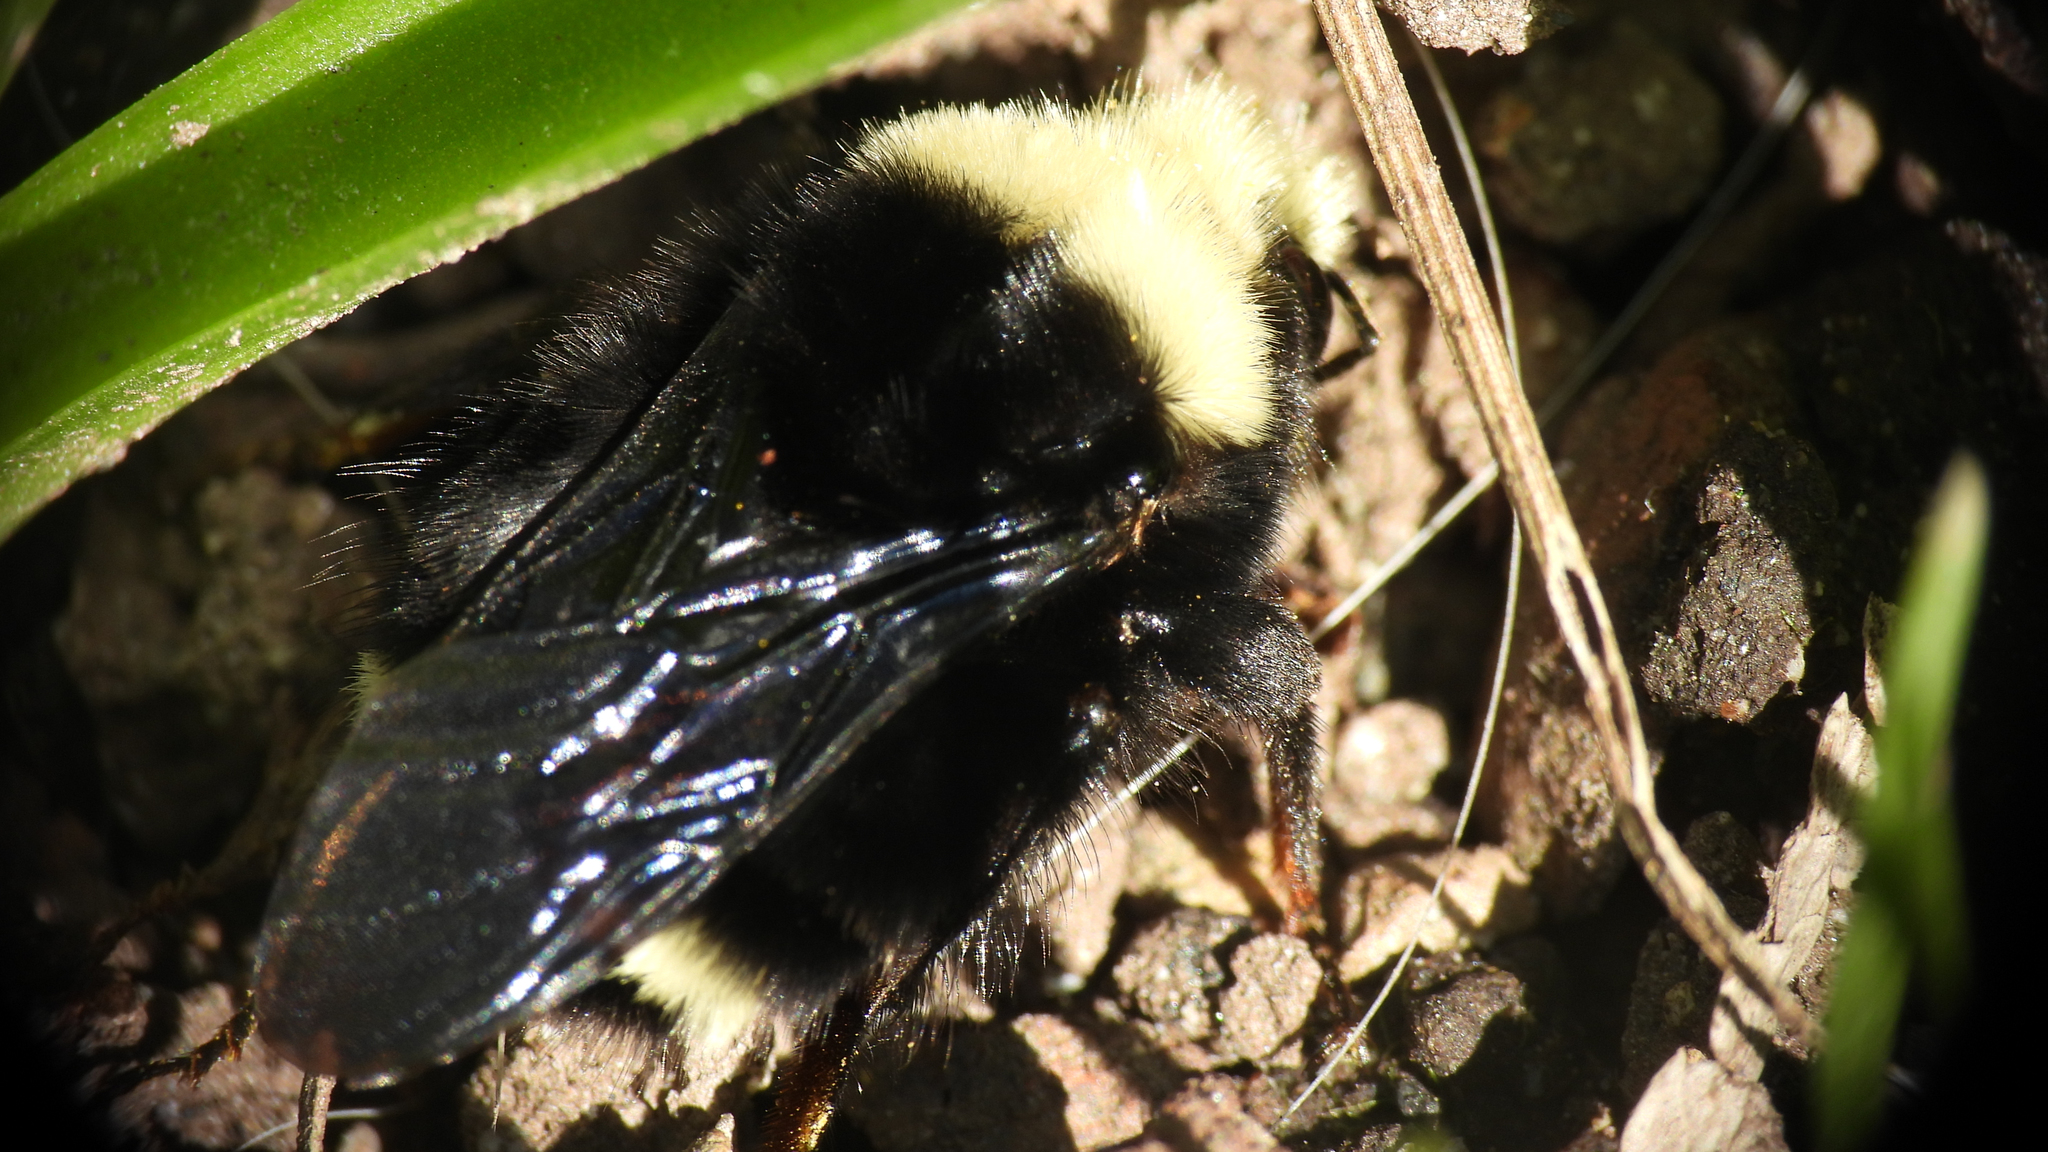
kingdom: Animalia
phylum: Arthropoda
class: Insecta
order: Hymenoptera
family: Apidae
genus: Bombus
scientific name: Bombus vosnesenskii
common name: Vosnesensky bumble bee
